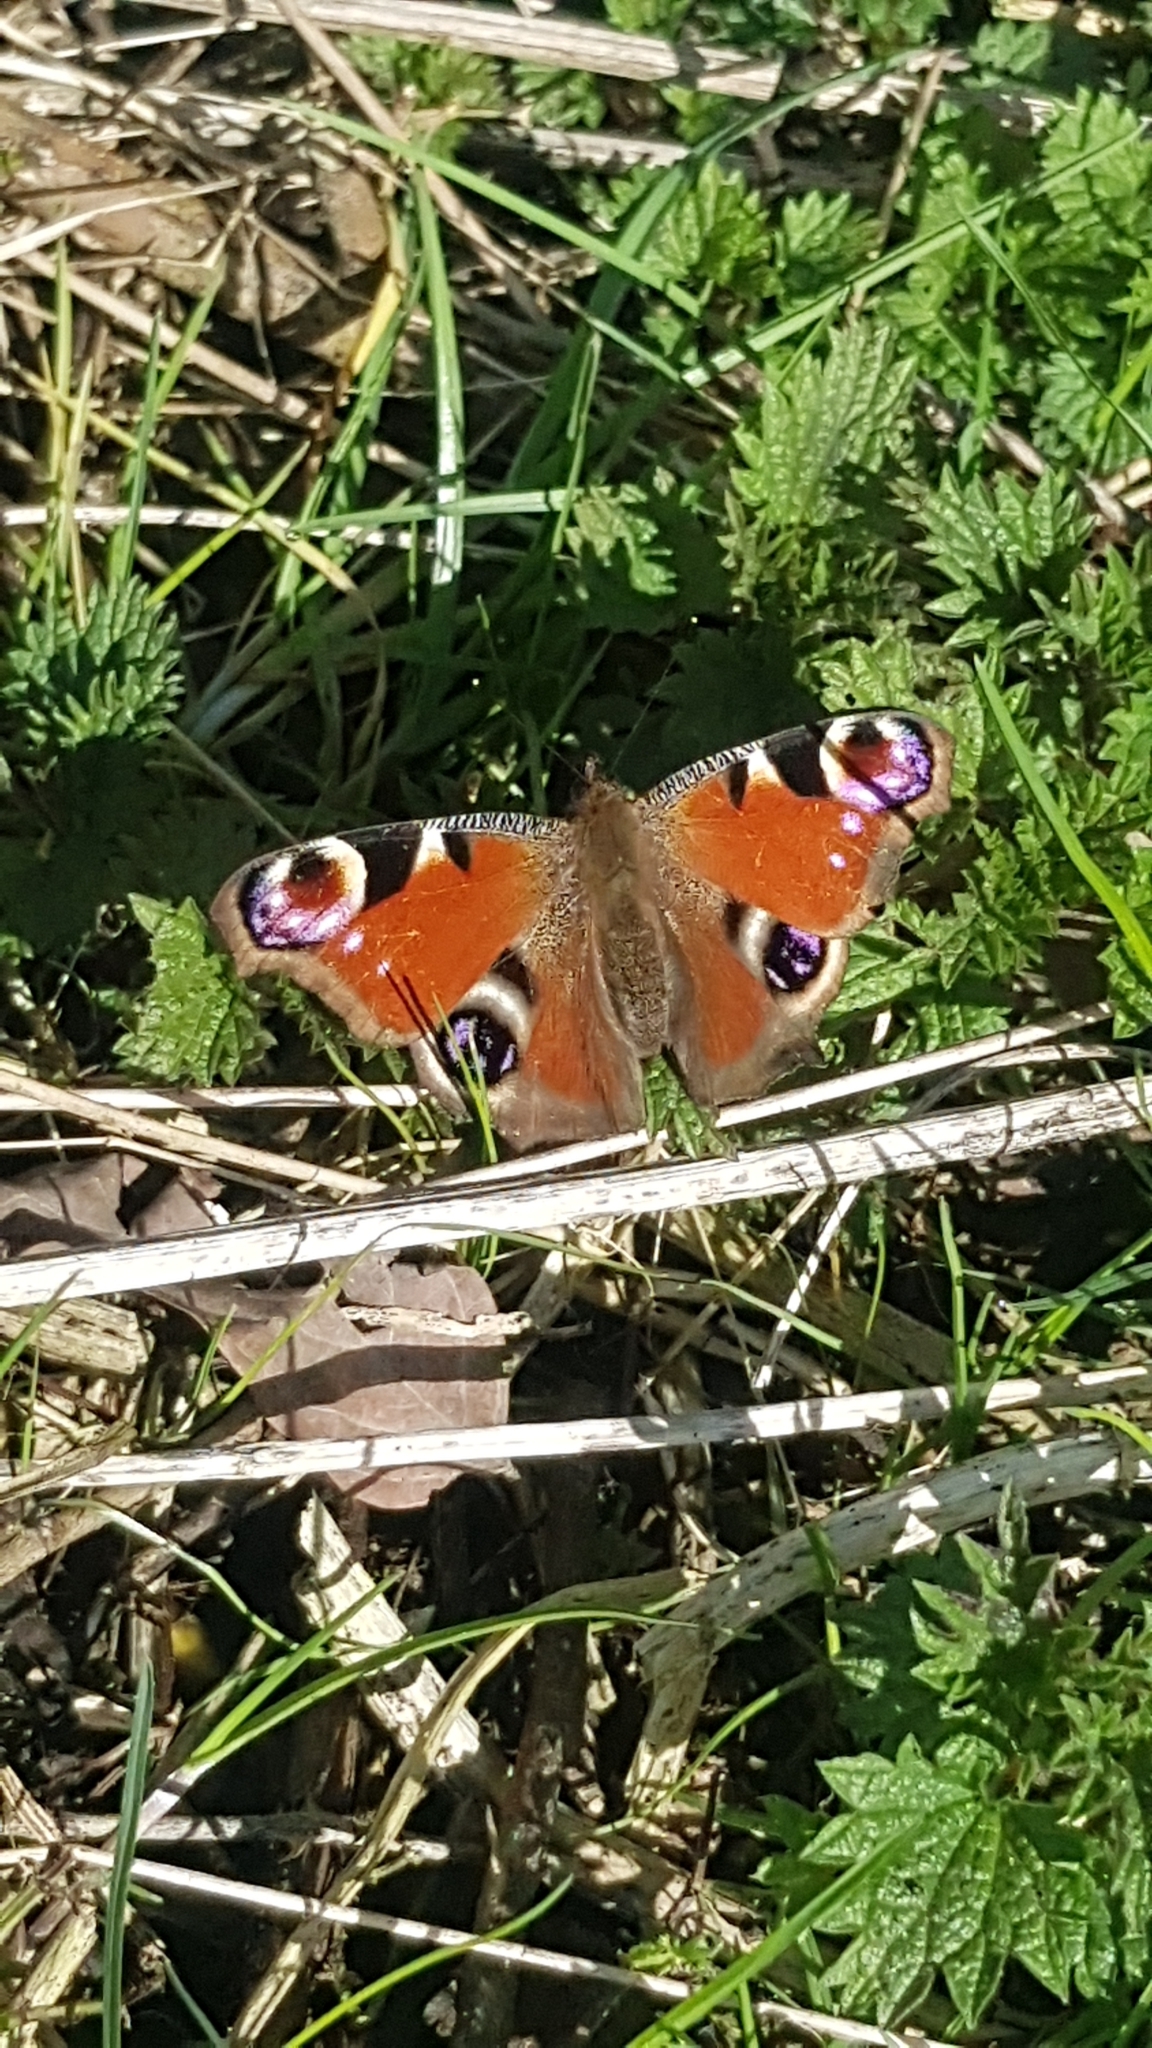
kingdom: Animalia
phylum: Arthropoda
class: Insecta
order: Lepidoptera
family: Nymphalidae
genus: Aglais
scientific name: Aglais io
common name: Peacock
